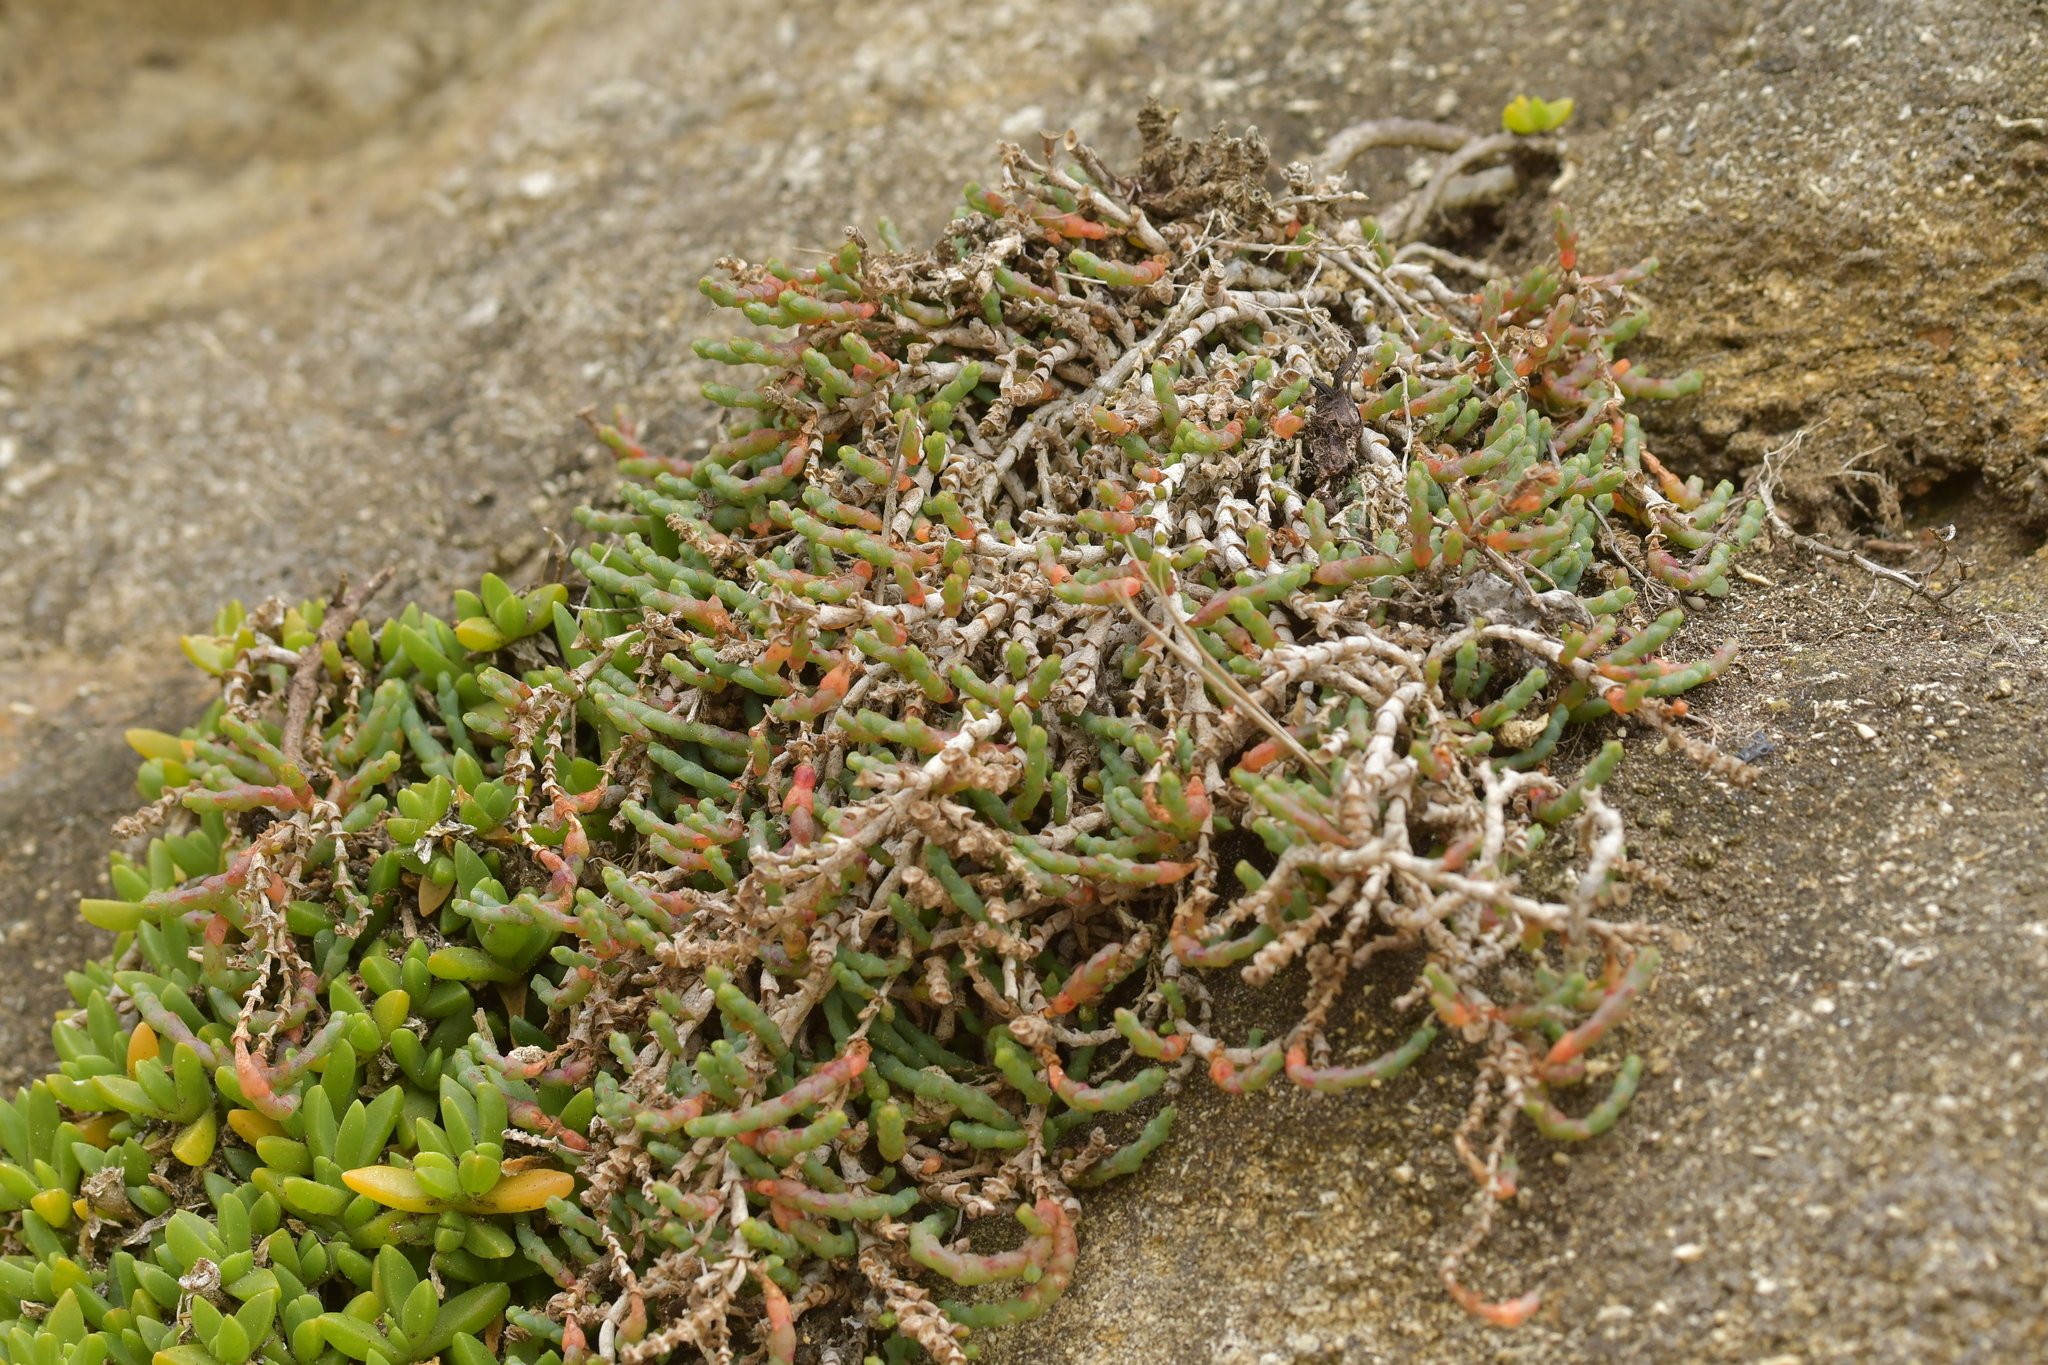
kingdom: Plantae
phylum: Tracheophyta
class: Magnoliopsida
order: Caryophyllales
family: Amaranthaceae
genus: Salicornia
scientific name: Salicornia quinqueflora
